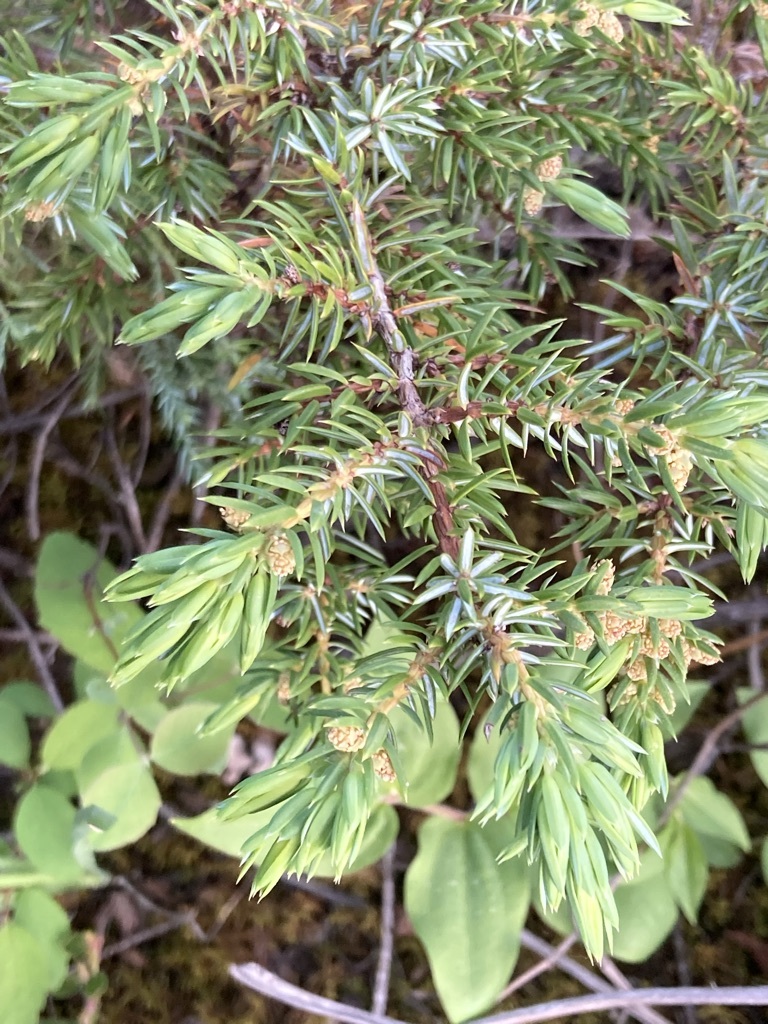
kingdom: Plantae
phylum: Tracheophyta
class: Pinopsida
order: Pinales
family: Cupressaceae
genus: Juniperus
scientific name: Juniperus communis
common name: Common juniper
